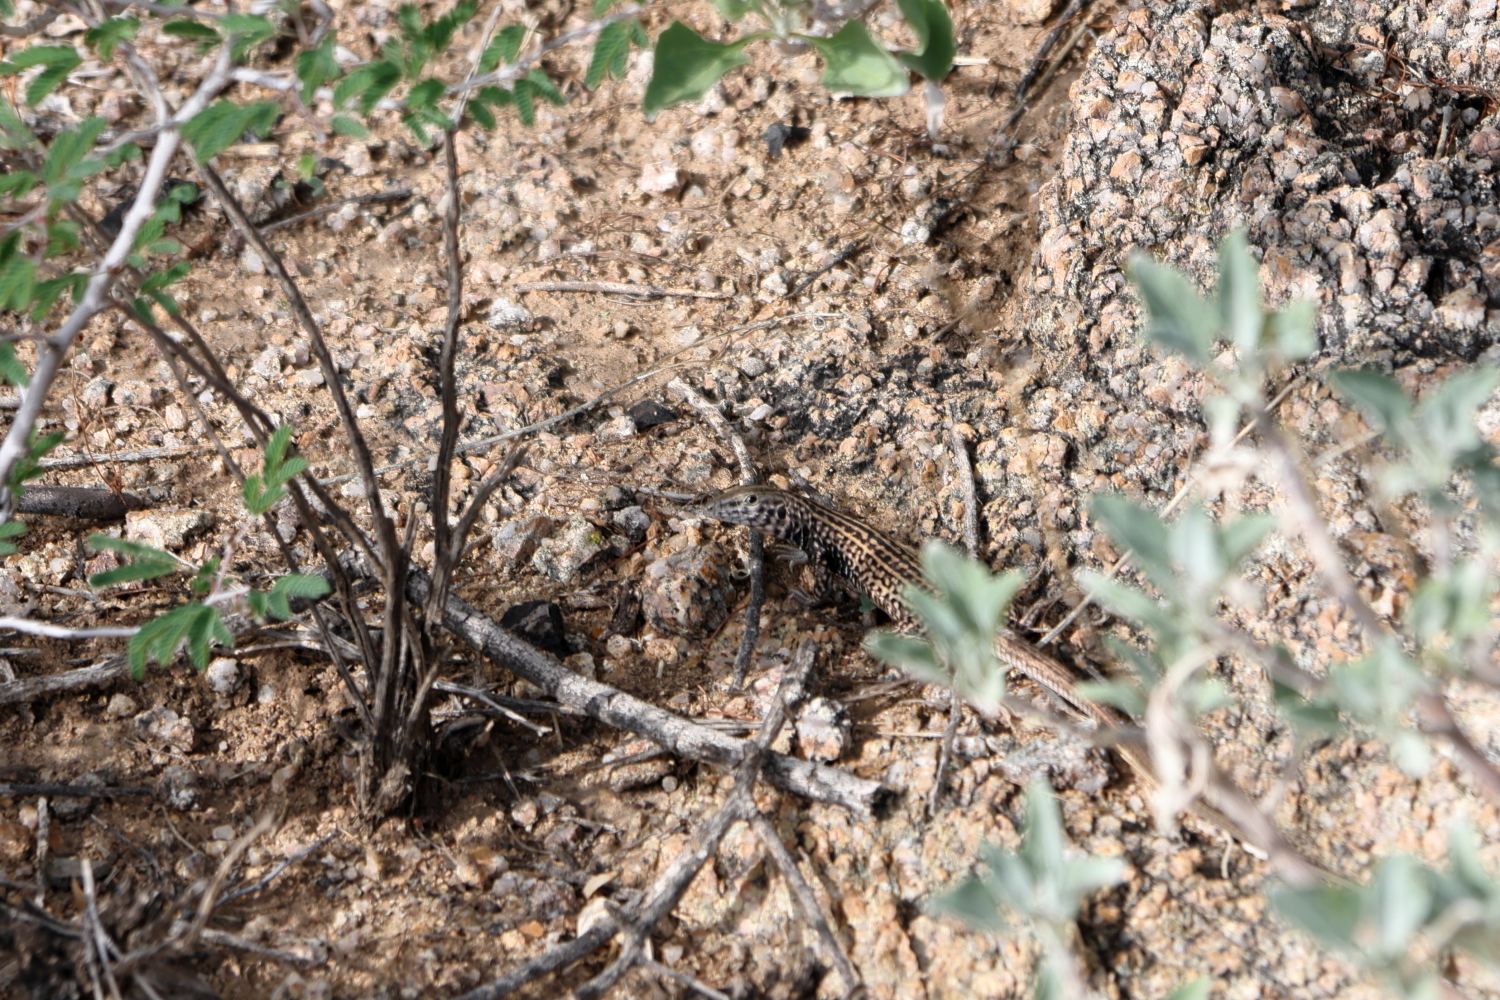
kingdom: Animalia
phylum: Chordata
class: Squamata
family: Teiidae
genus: Aspidoscelis
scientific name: Aspidoscelis tigris
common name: Tiger whiptail
